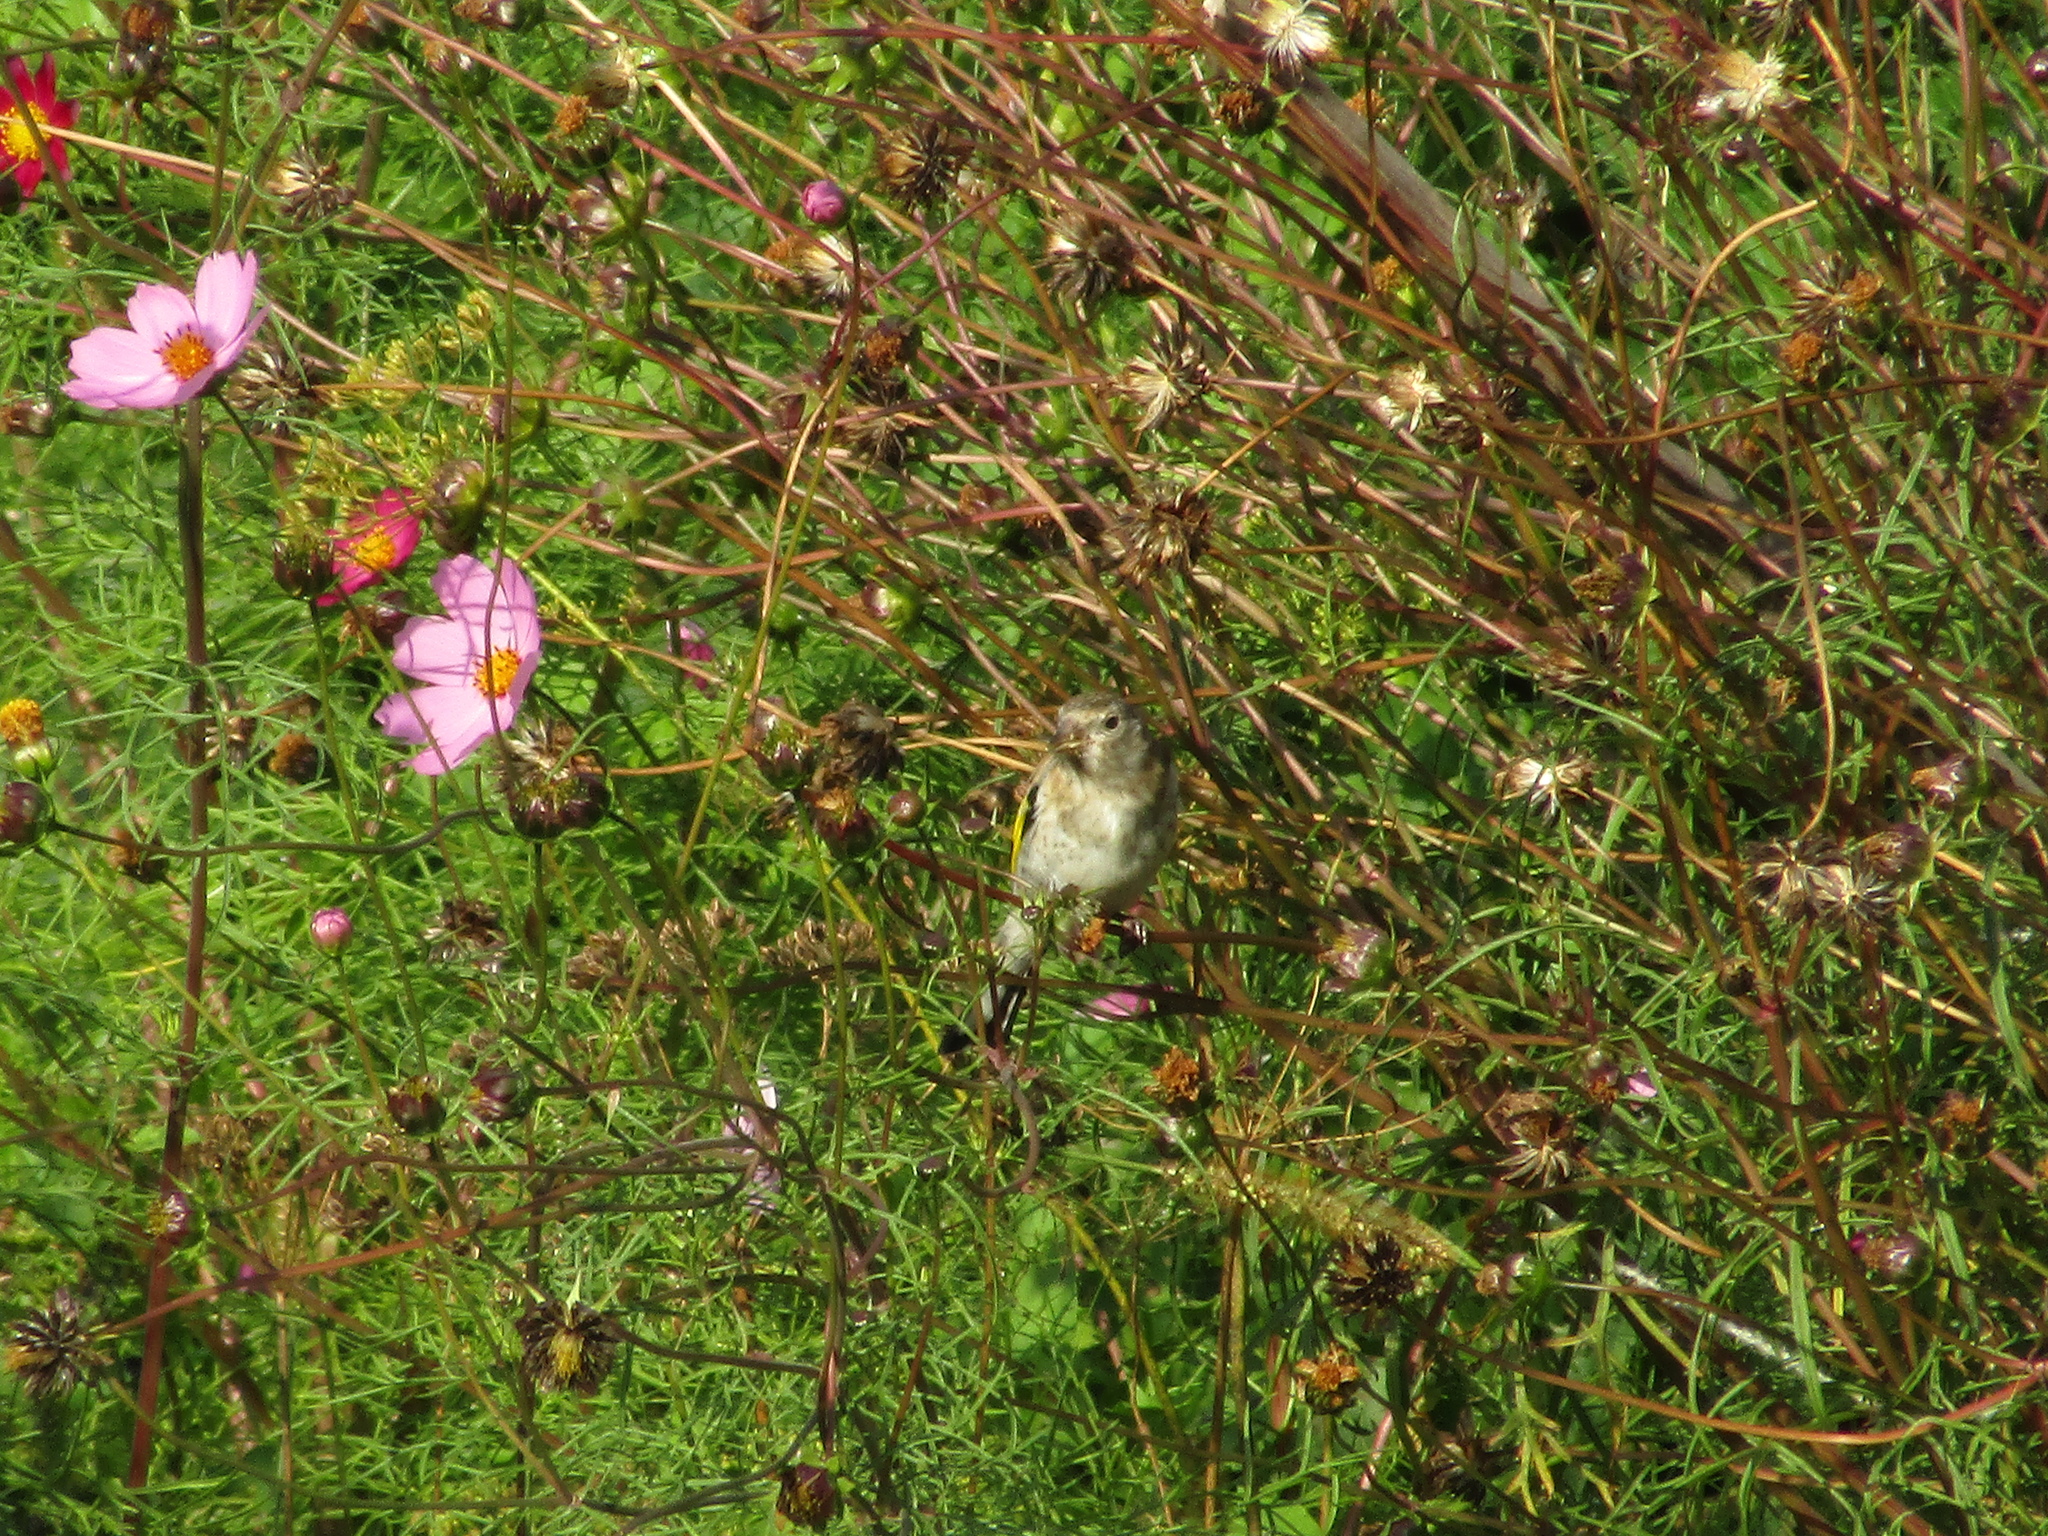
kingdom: Animalia
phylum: Chordata
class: Aves
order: Passeriformes
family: Fringillidae
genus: Carduelis
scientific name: Carduelis carduelis
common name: European goldfinch
